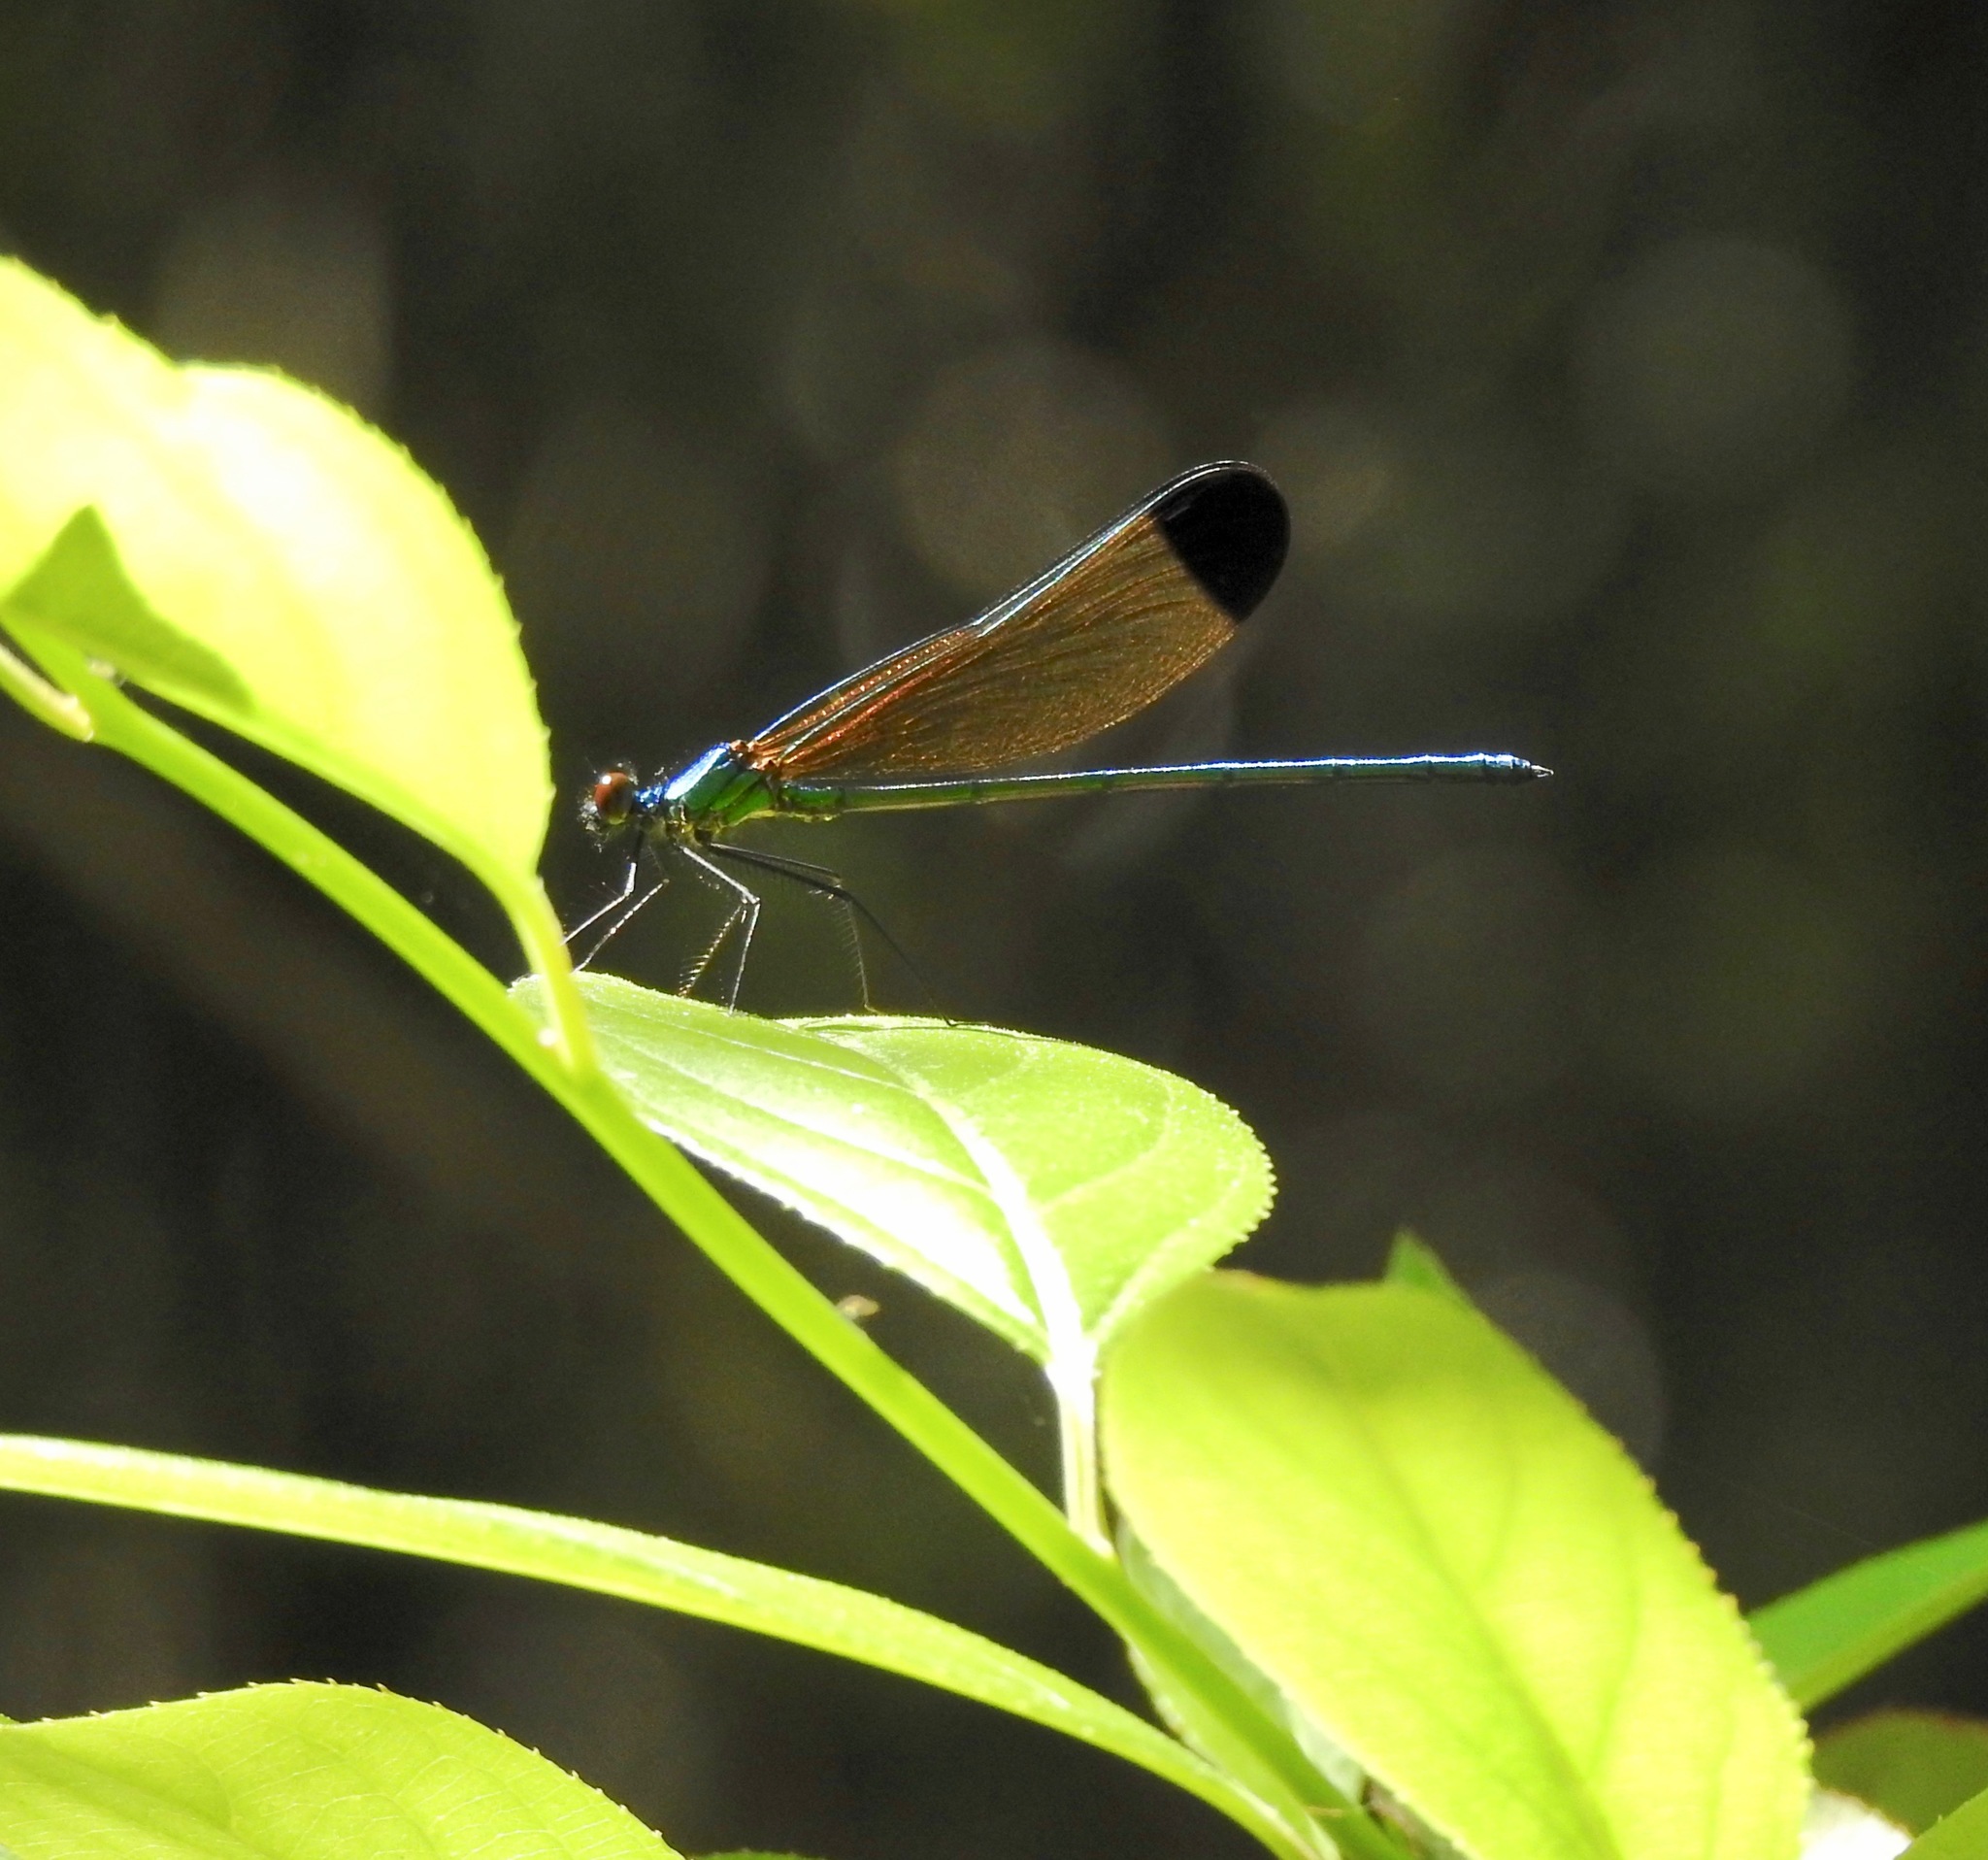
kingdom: Animalia
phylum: Arthropoda
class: Insecta
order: Odonata
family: Calopterygidae
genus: Calopteryx
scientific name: Calopteryx dimidiata
